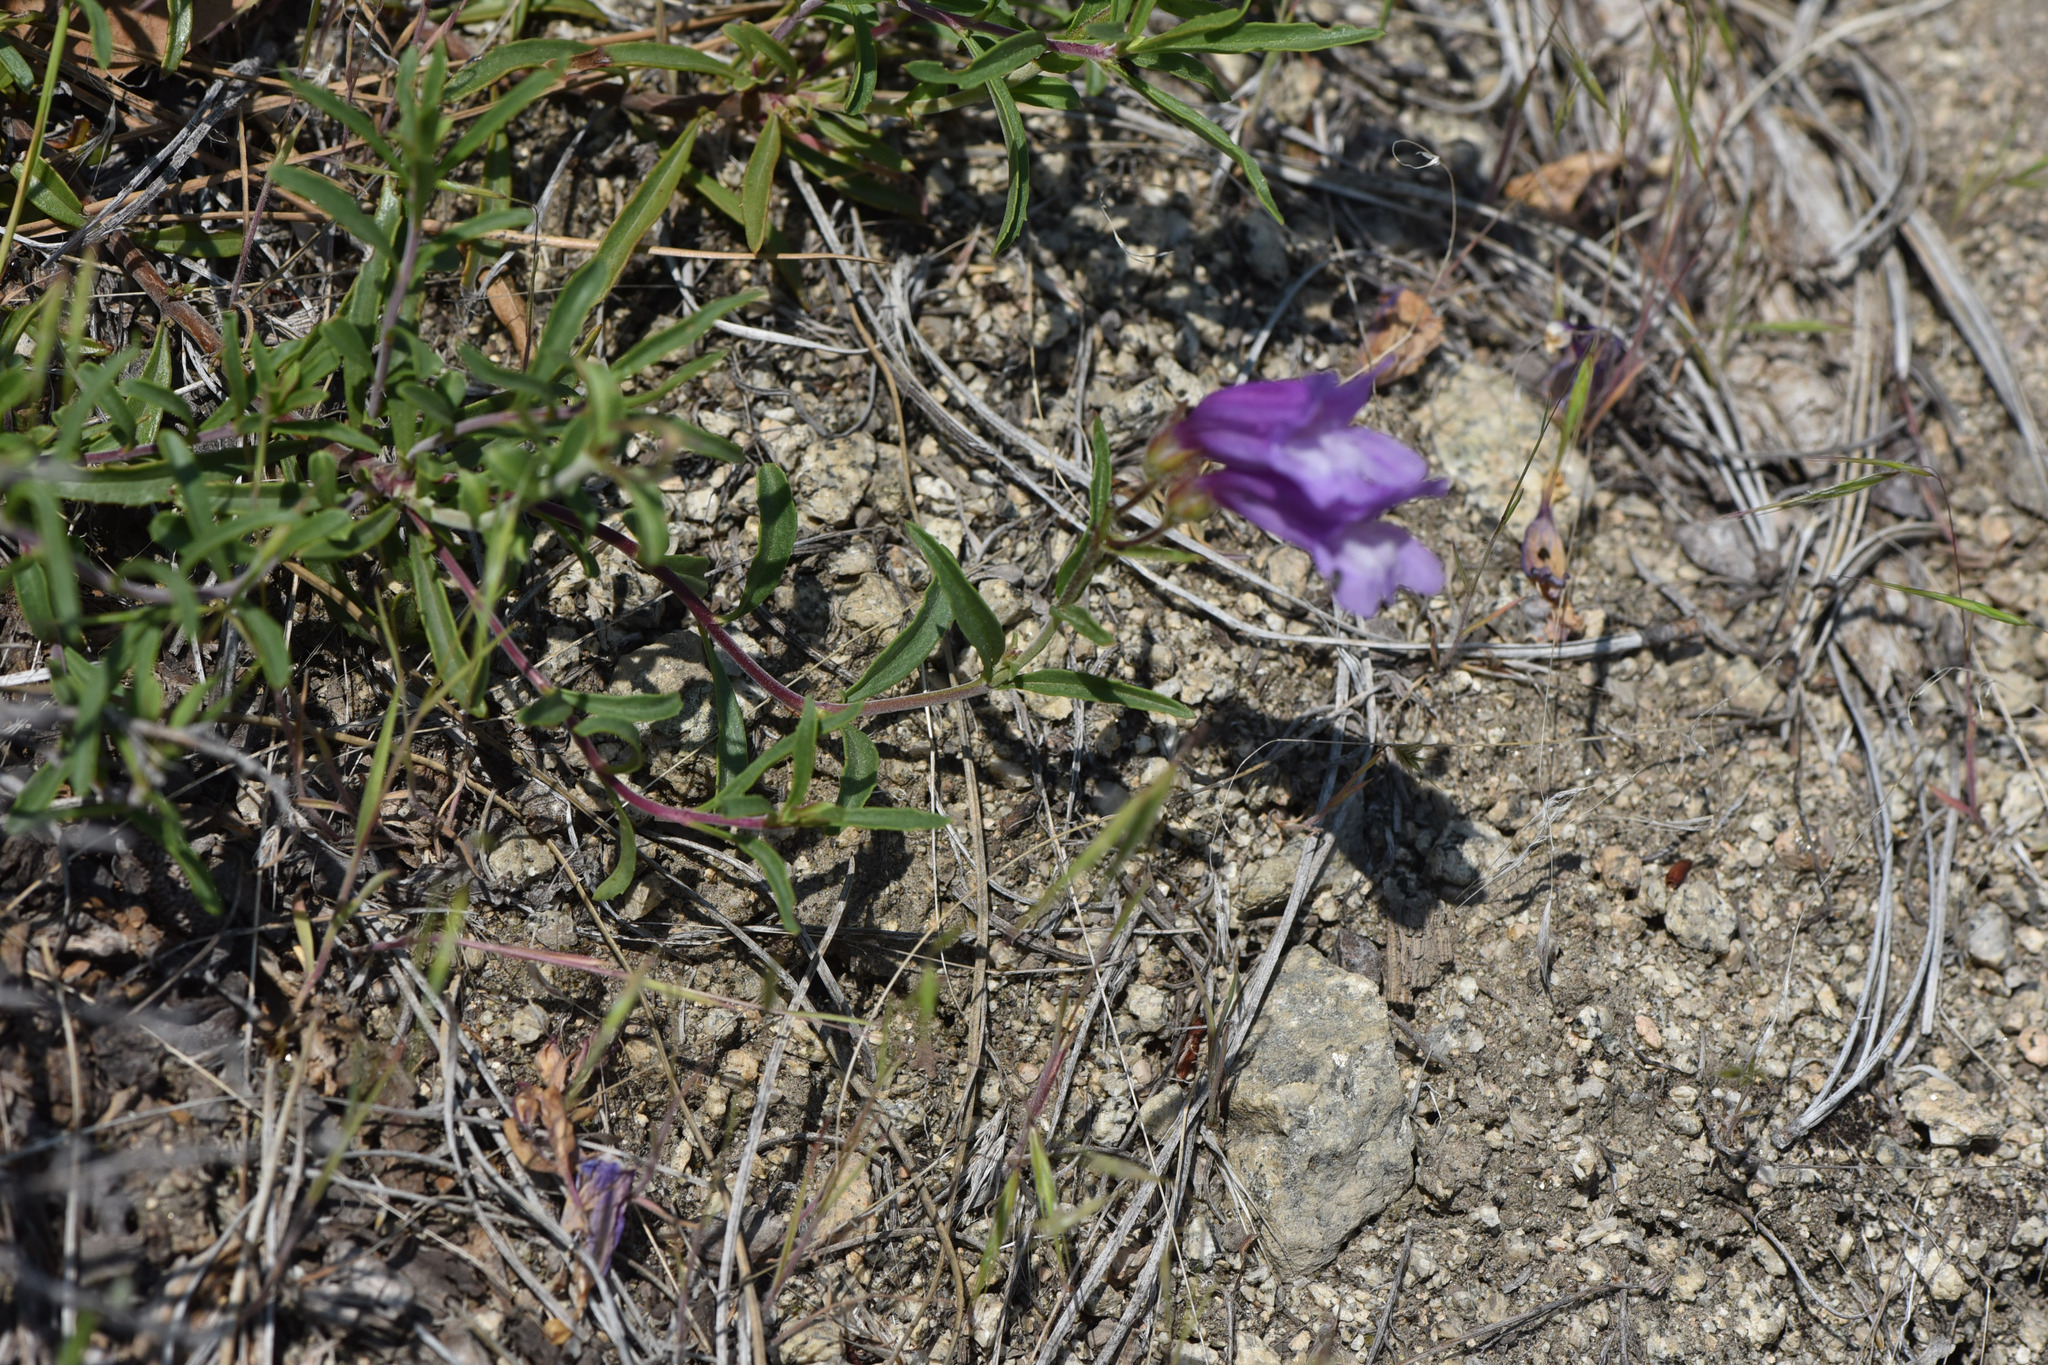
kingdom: Plantae
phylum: Tracheophyta
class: Magnoliopsida
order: Lamiales
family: Plantaginaceae
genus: Penstemon
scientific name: Penstemon fruticosus
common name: Bush penstemon
